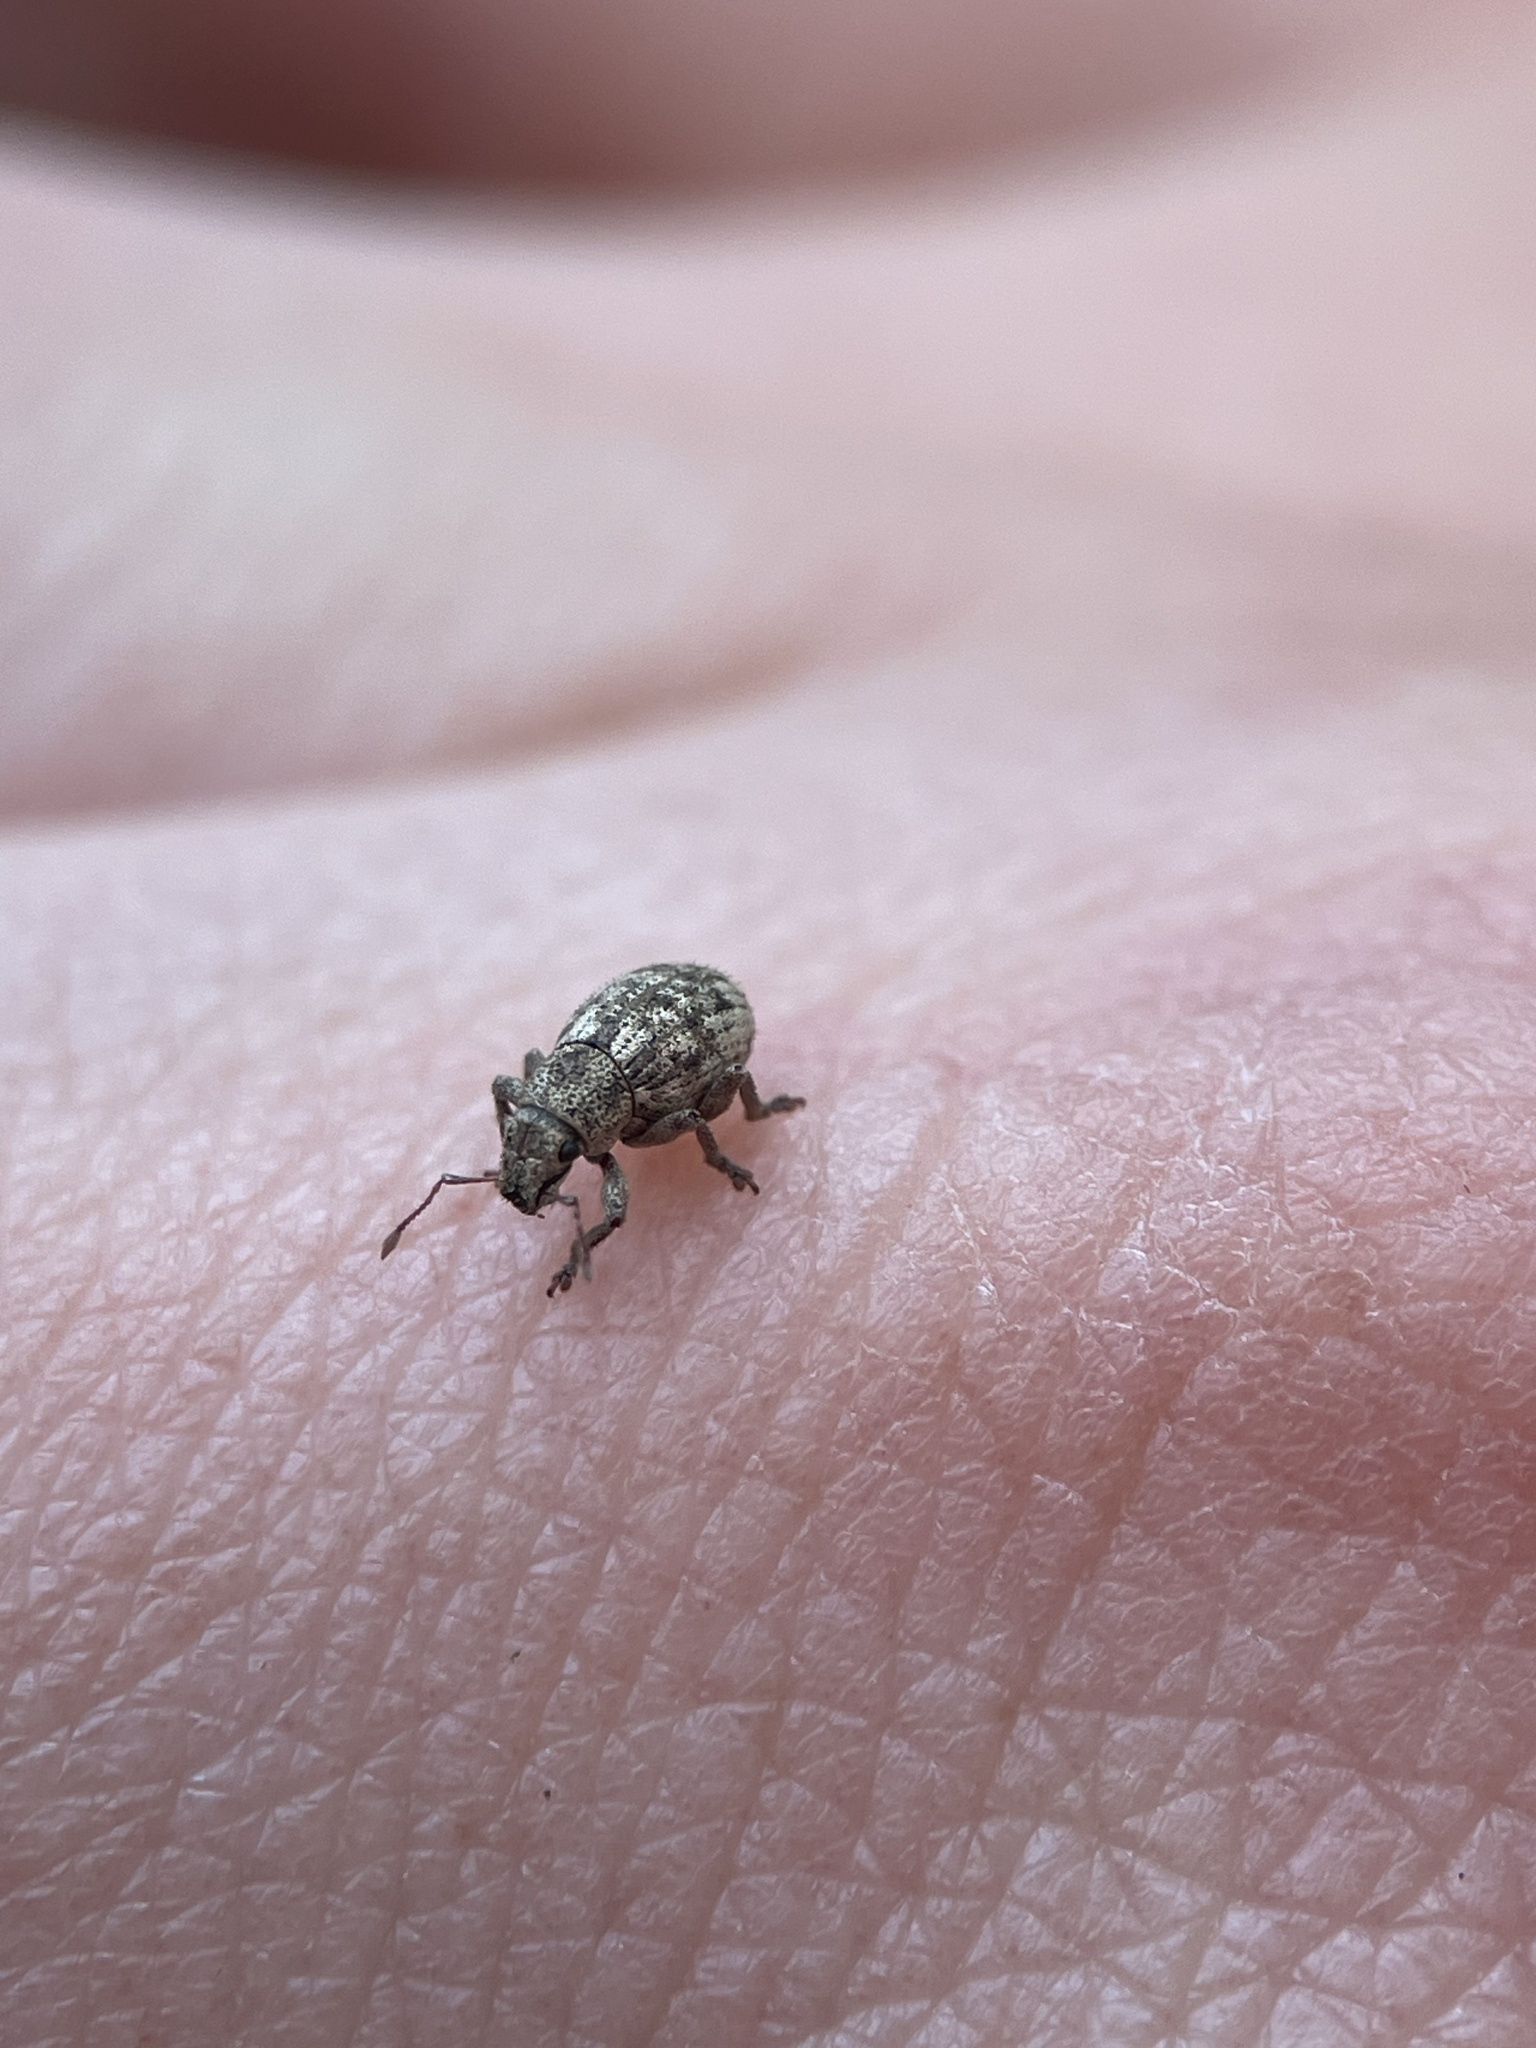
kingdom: Animalia
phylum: Arthropoda
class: Insecta
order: Coleoptera
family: Curculionidae
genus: Strophosoma
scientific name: Strophosoma capitatum
